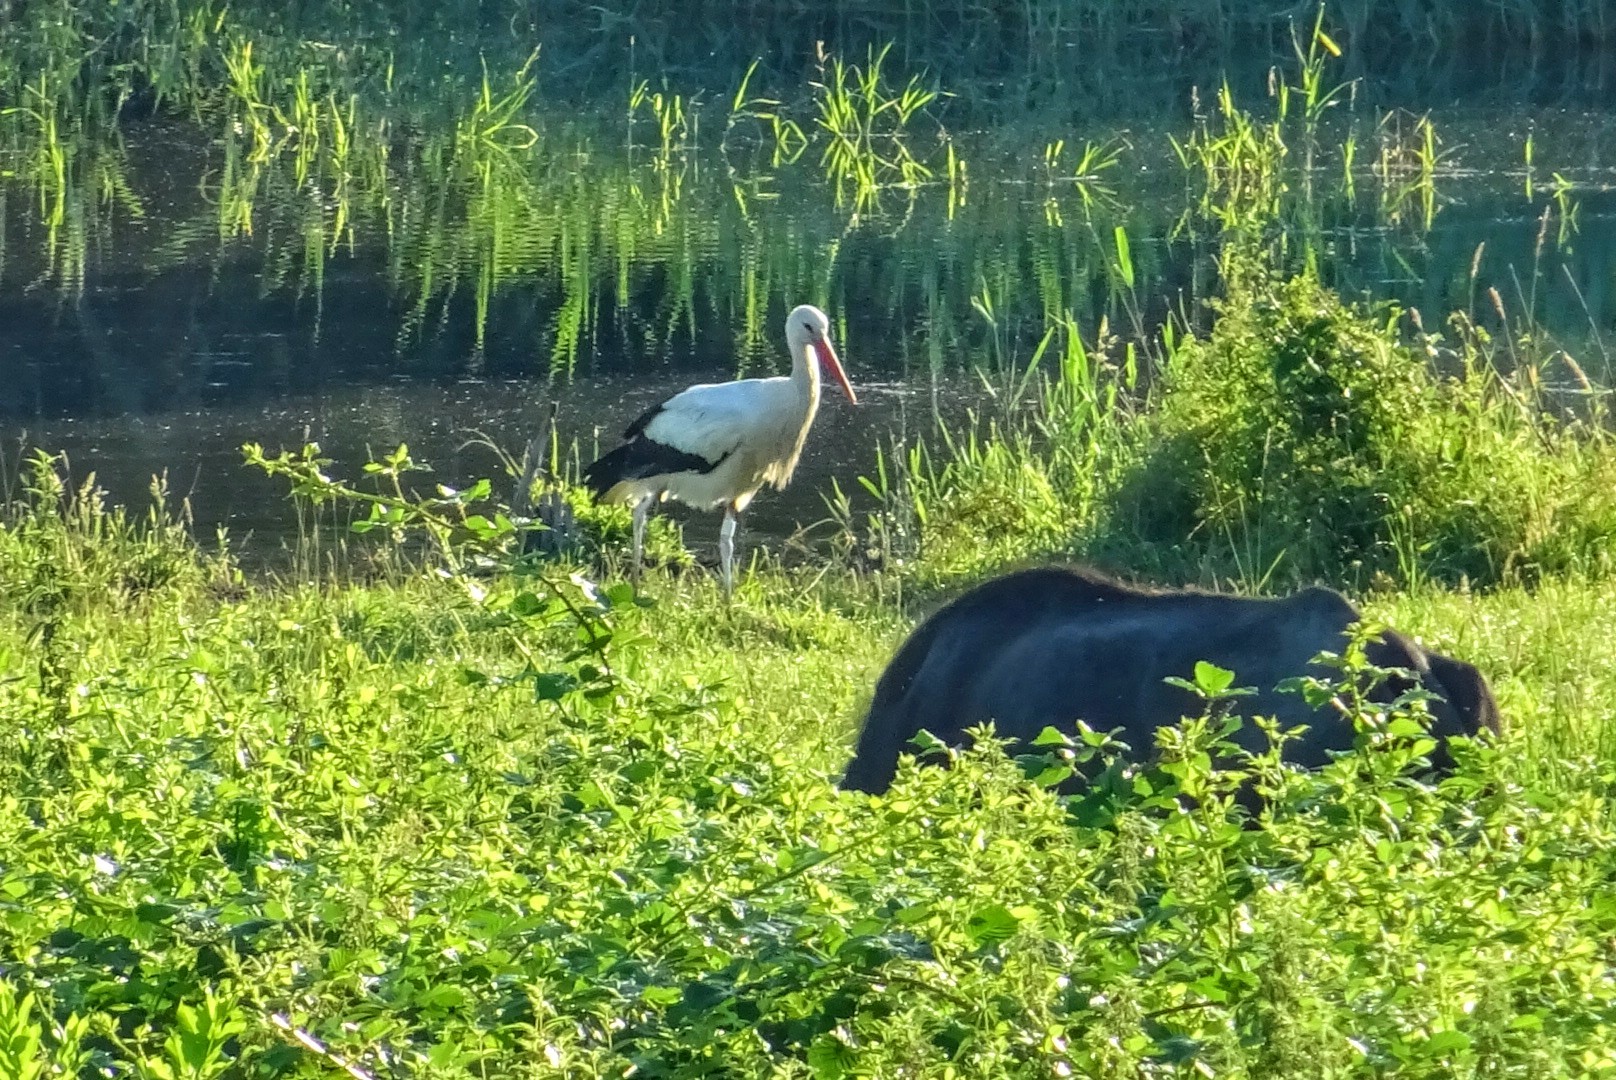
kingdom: Animalia
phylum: Chordata
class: Aves
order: Ciconiiformes
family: Ciconiidae
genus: Ciconia
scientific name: Ciconia ciconia
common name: White stork
